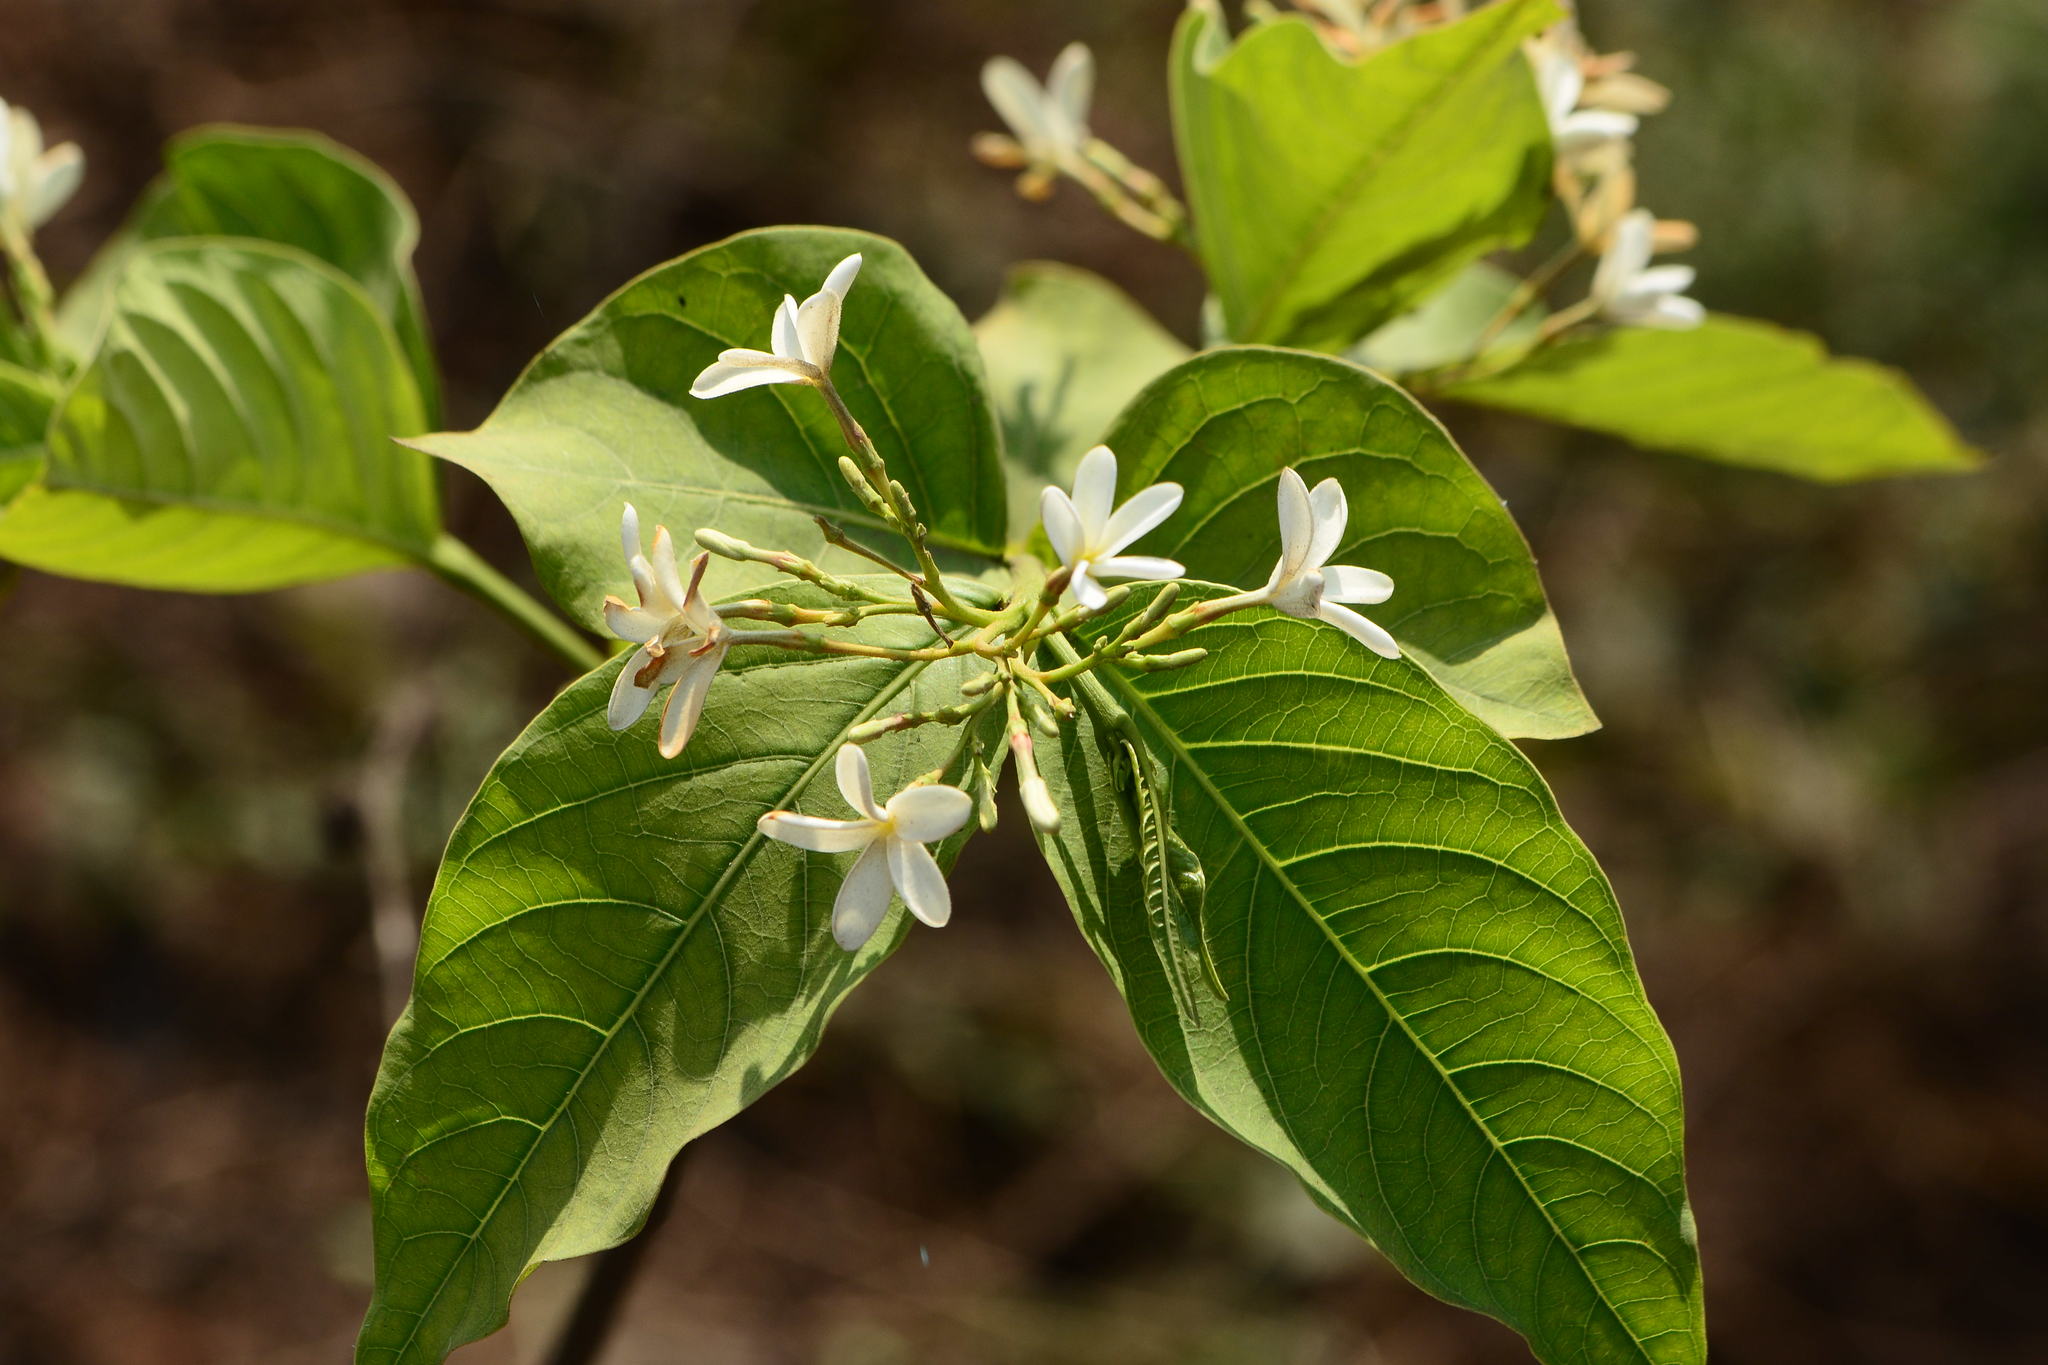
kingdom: Plantae
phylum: Tracheophyta
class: Magnoliopsida
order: Gentianales
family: Apocynaceae
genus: Holarrhena
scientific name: Holarrhena pubescens
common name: Bitter oleander
